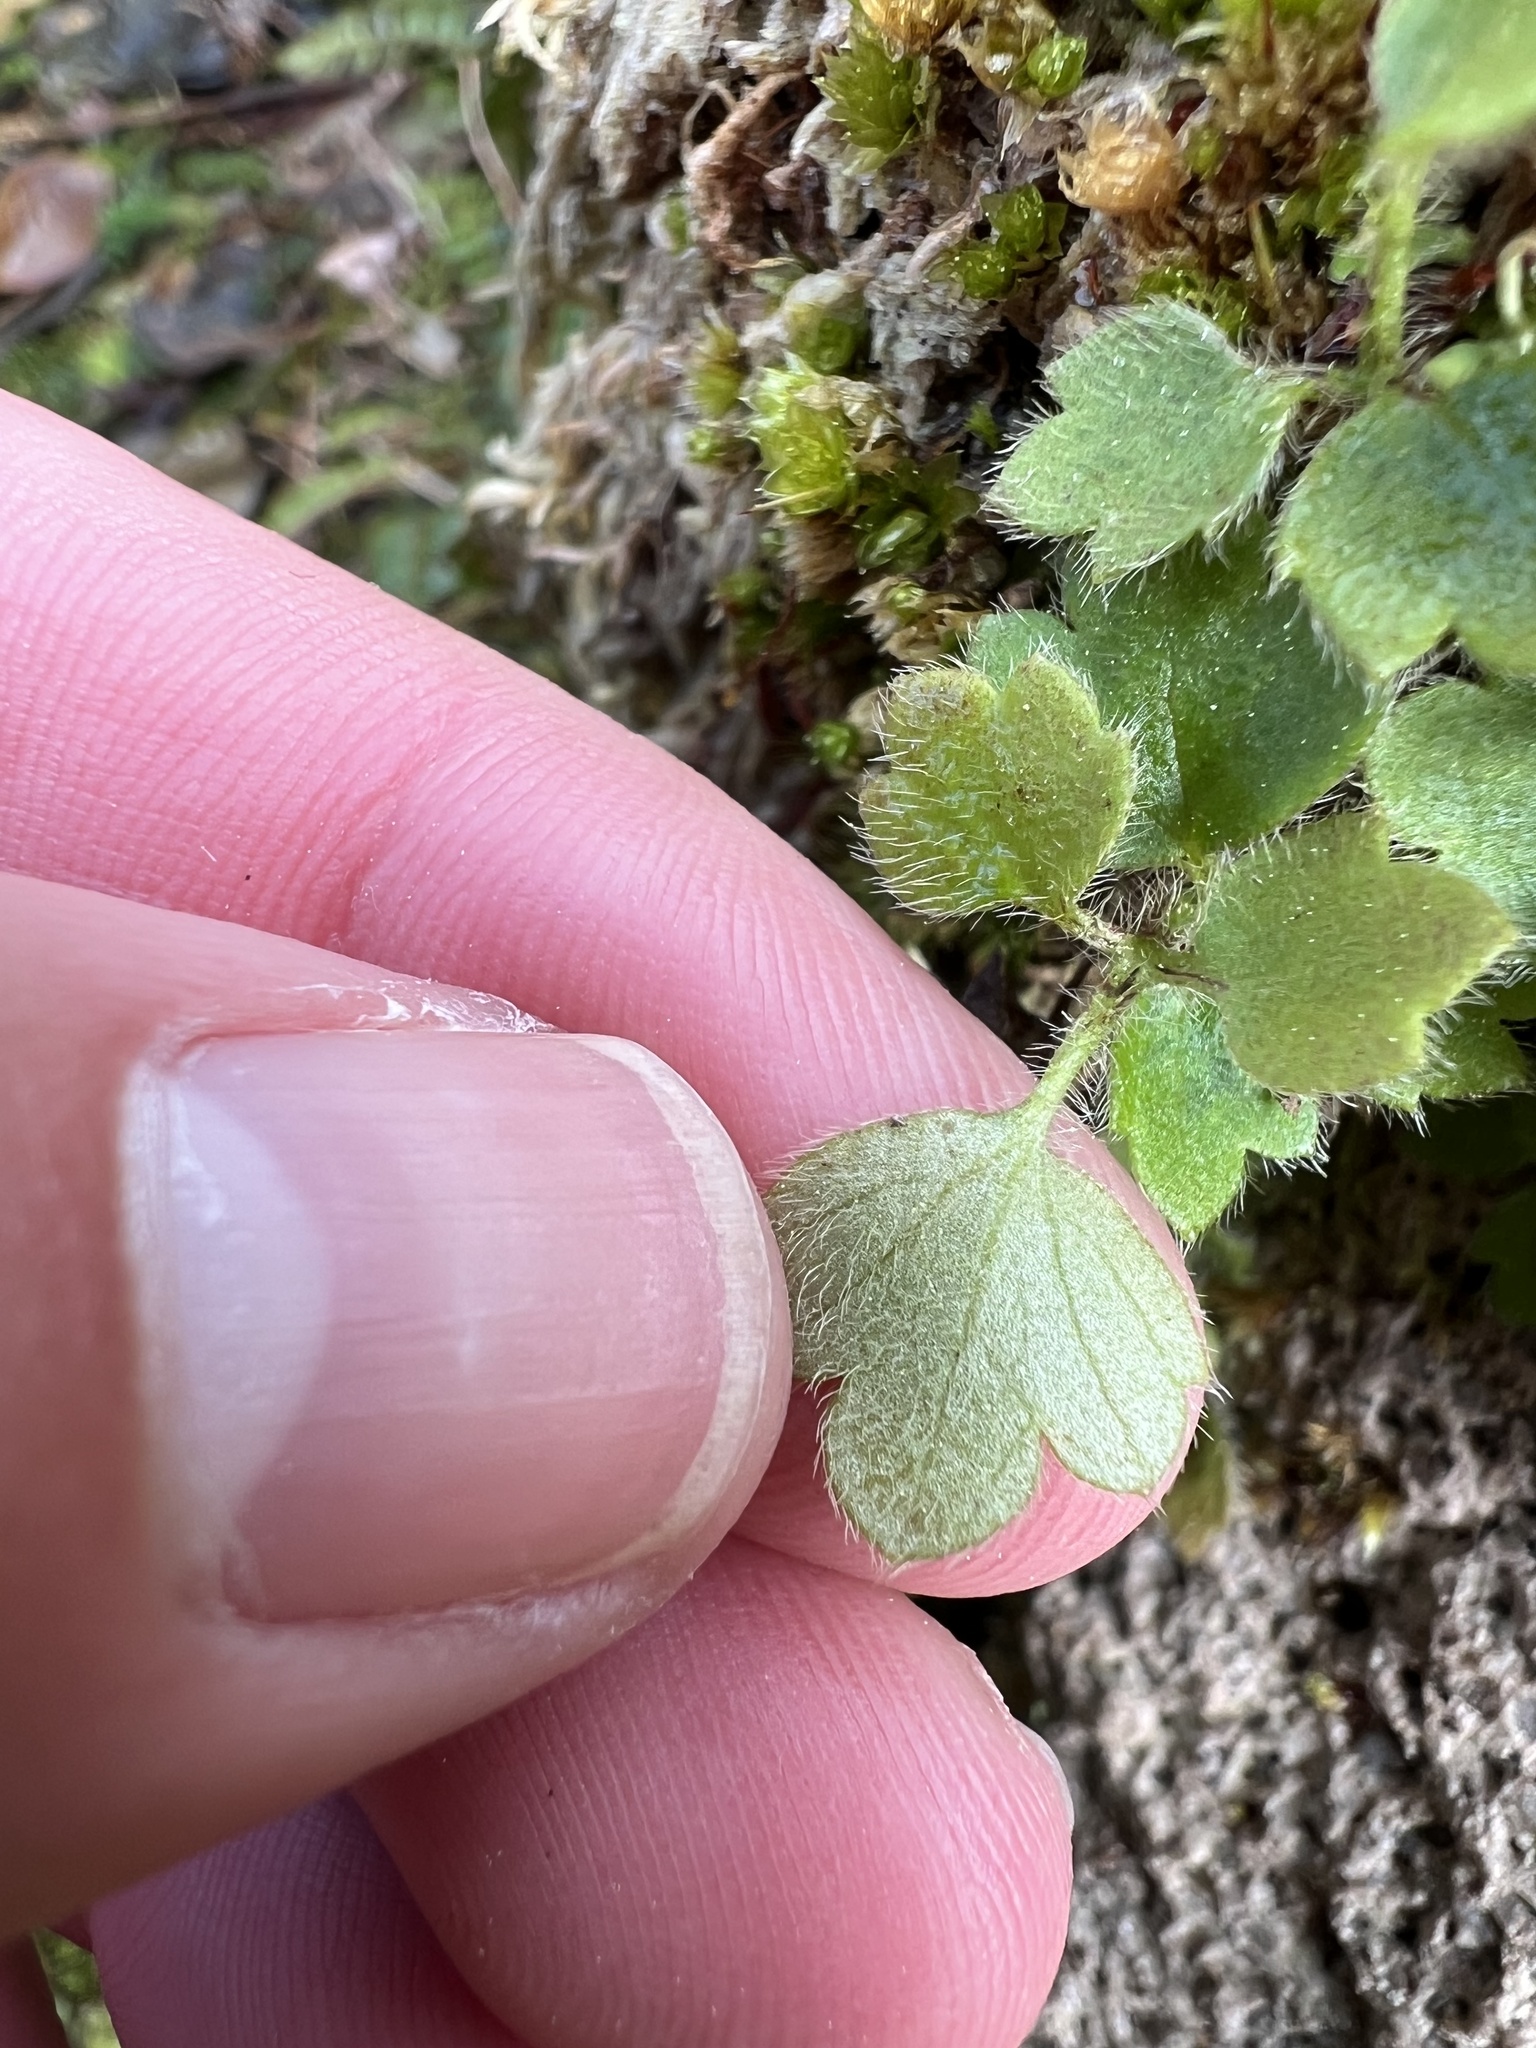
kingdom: Plantae
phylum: Tracheophyta
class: Magnoliopsida
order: Ranunculales
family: Ranunculaceae
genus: Ranunculus
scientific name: Ranunculus reflexus
